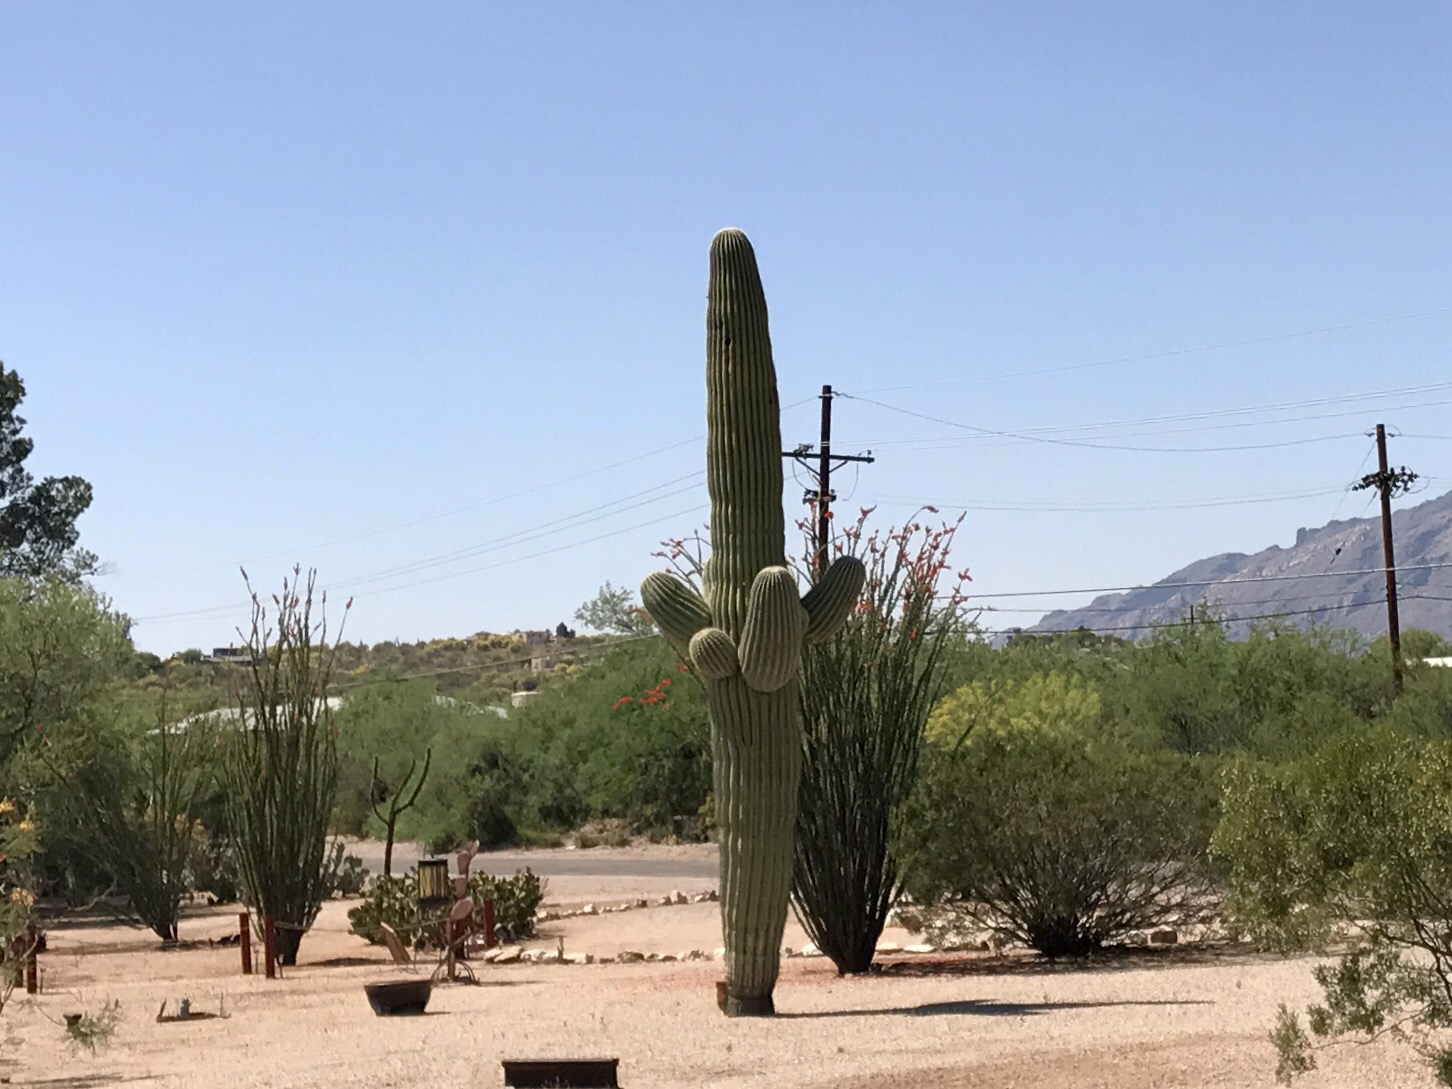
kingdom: Plantae
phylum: Tracheophyta
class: Magnoliopsida
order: Caryophyllales
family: Cactaceae
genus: Carnegiea
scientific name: Carnegiea gigantea
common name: Saguaro
